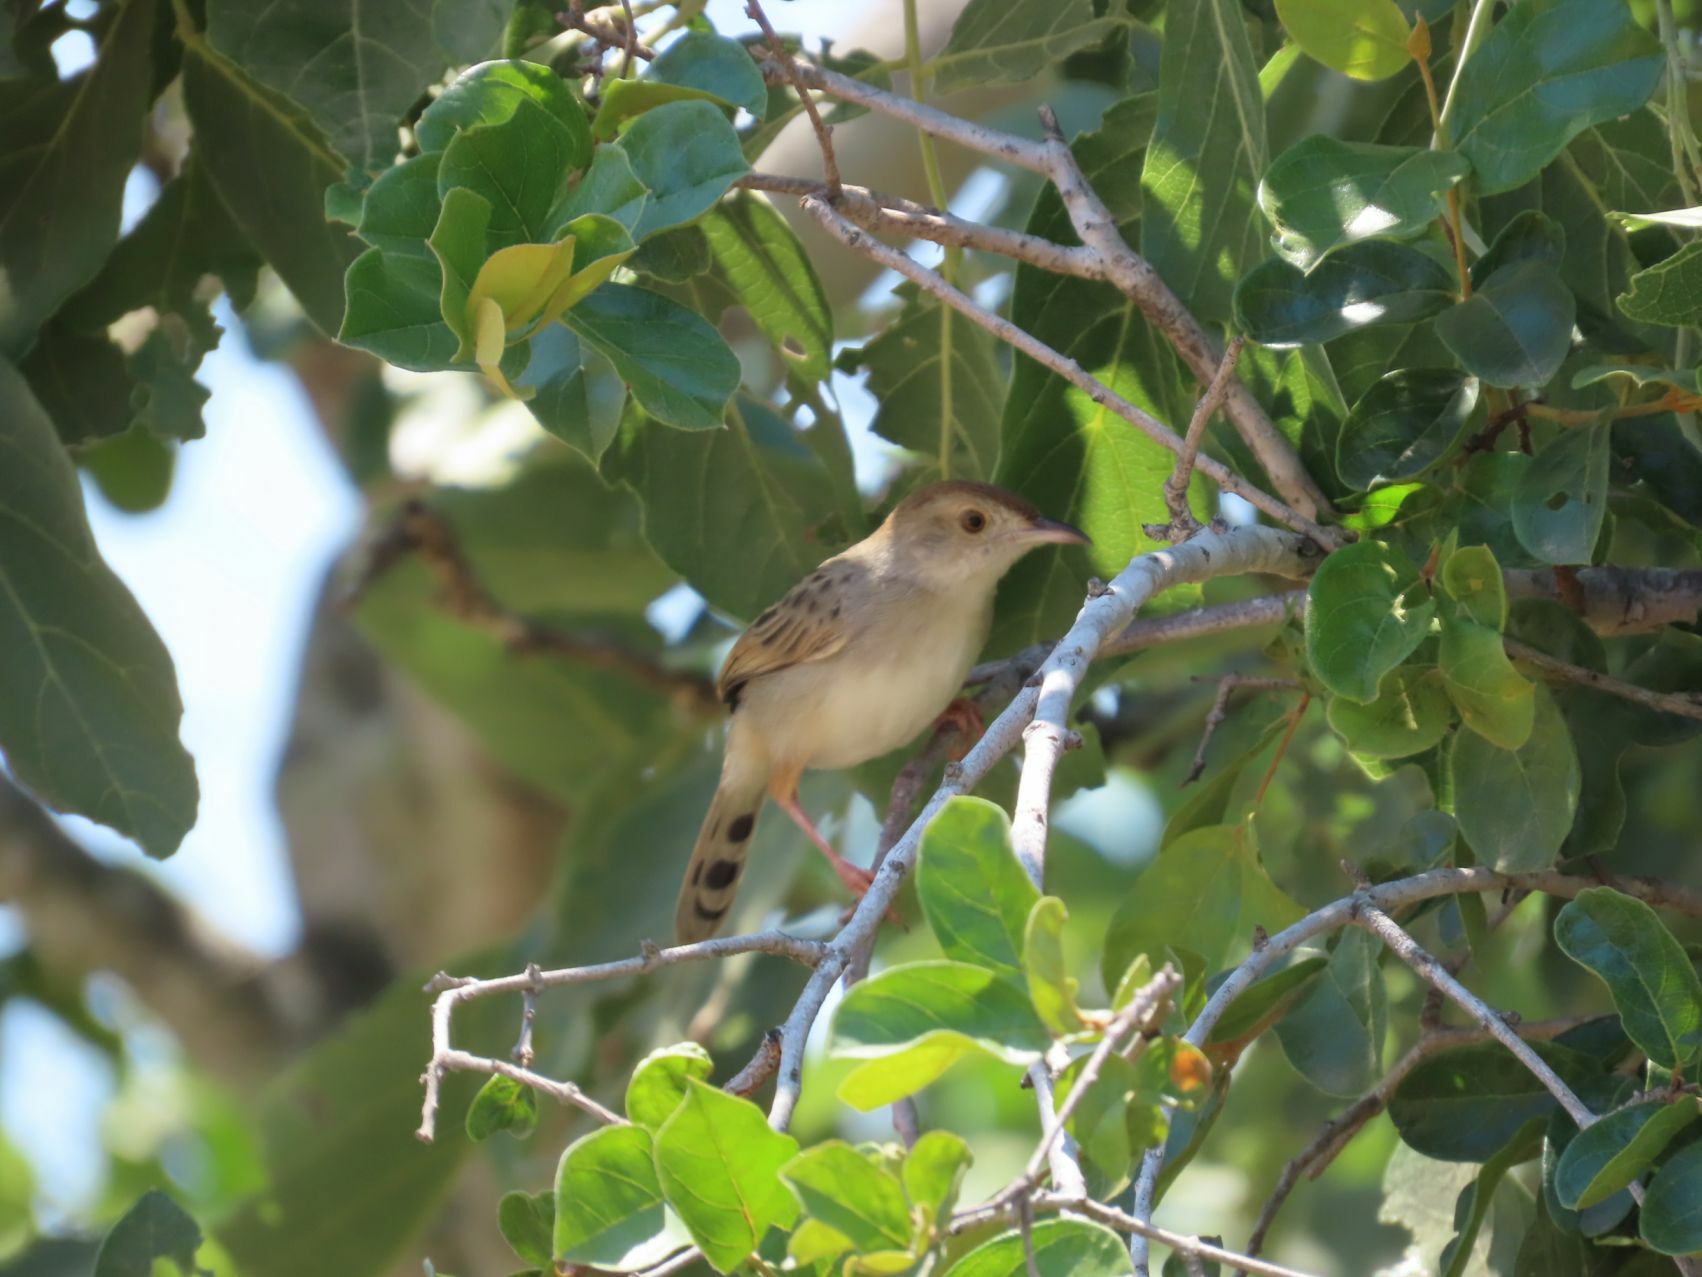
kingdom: Animalia
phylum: Chordata
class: Aves
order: Passeriformes
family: Cisticolidae
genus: Cisticola
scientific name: Cisticola chiniana
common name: Rattling cisticola
